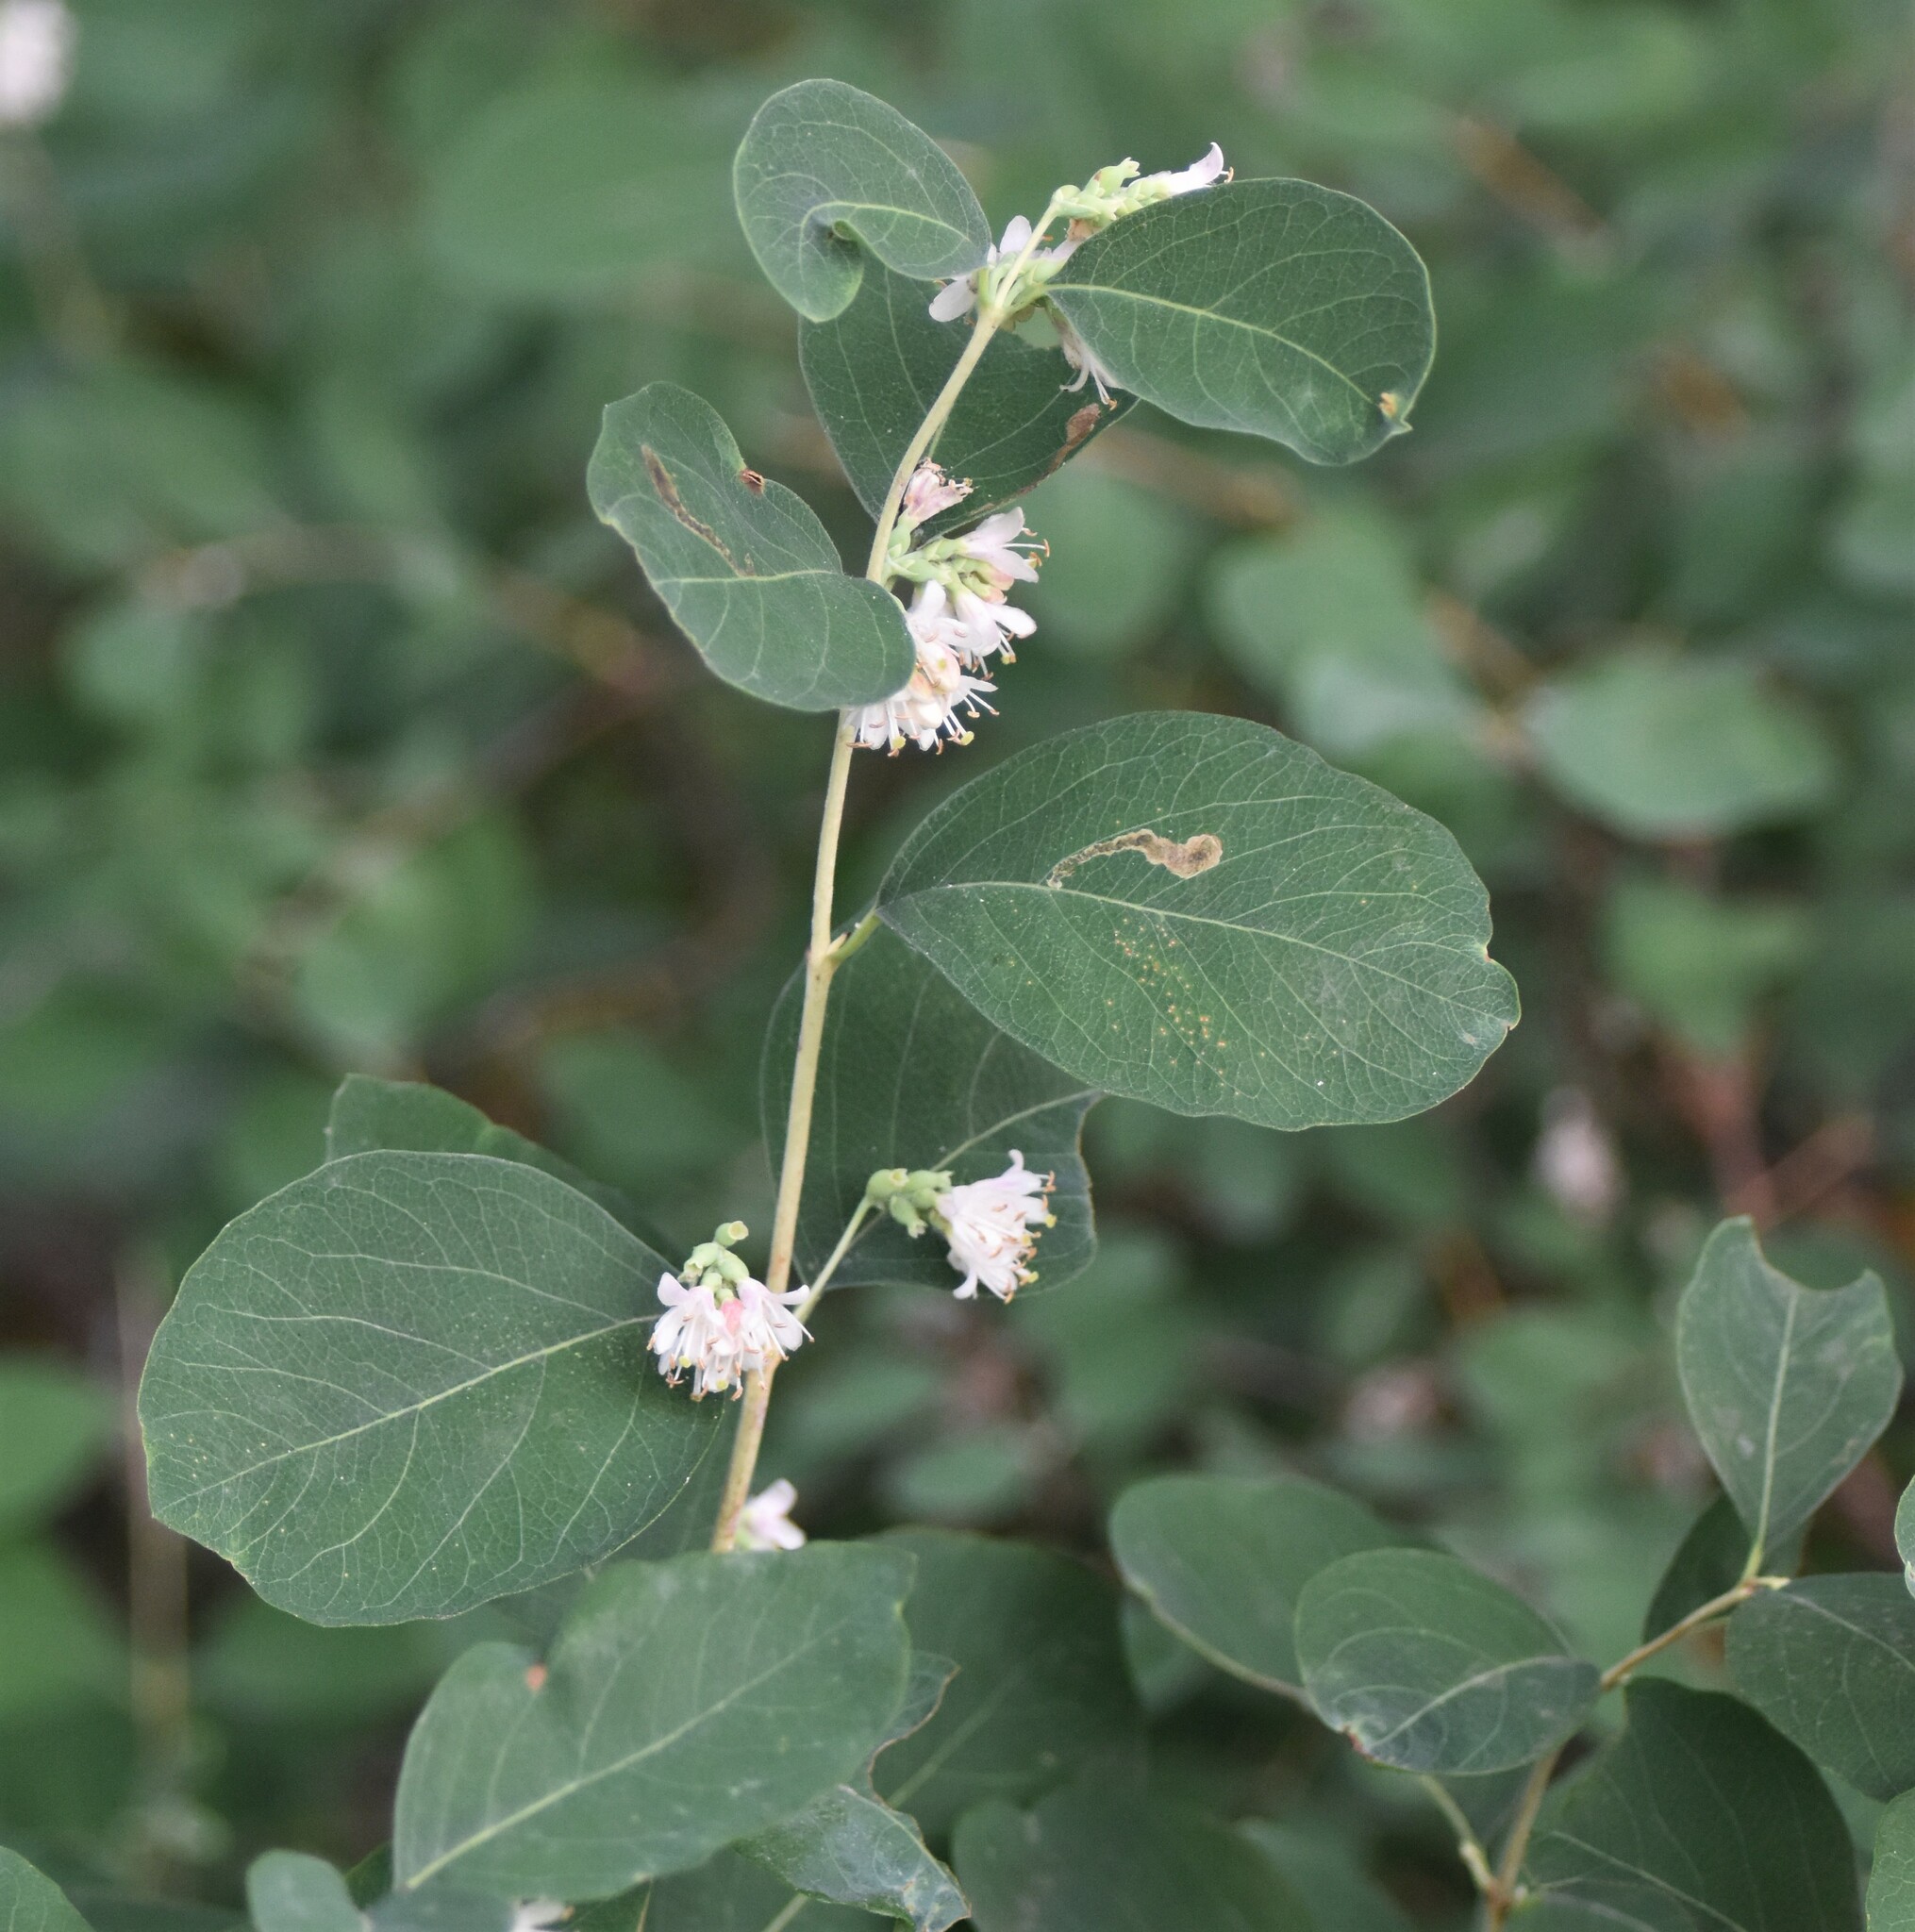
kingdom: Plantae
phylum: Tracheophyta
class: Magnoliopsida
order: Dipsacales
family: Caprifoliaceae
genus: Symphoricarpos
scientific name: Symphoricarpos occidentalis
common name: Wolfberry
